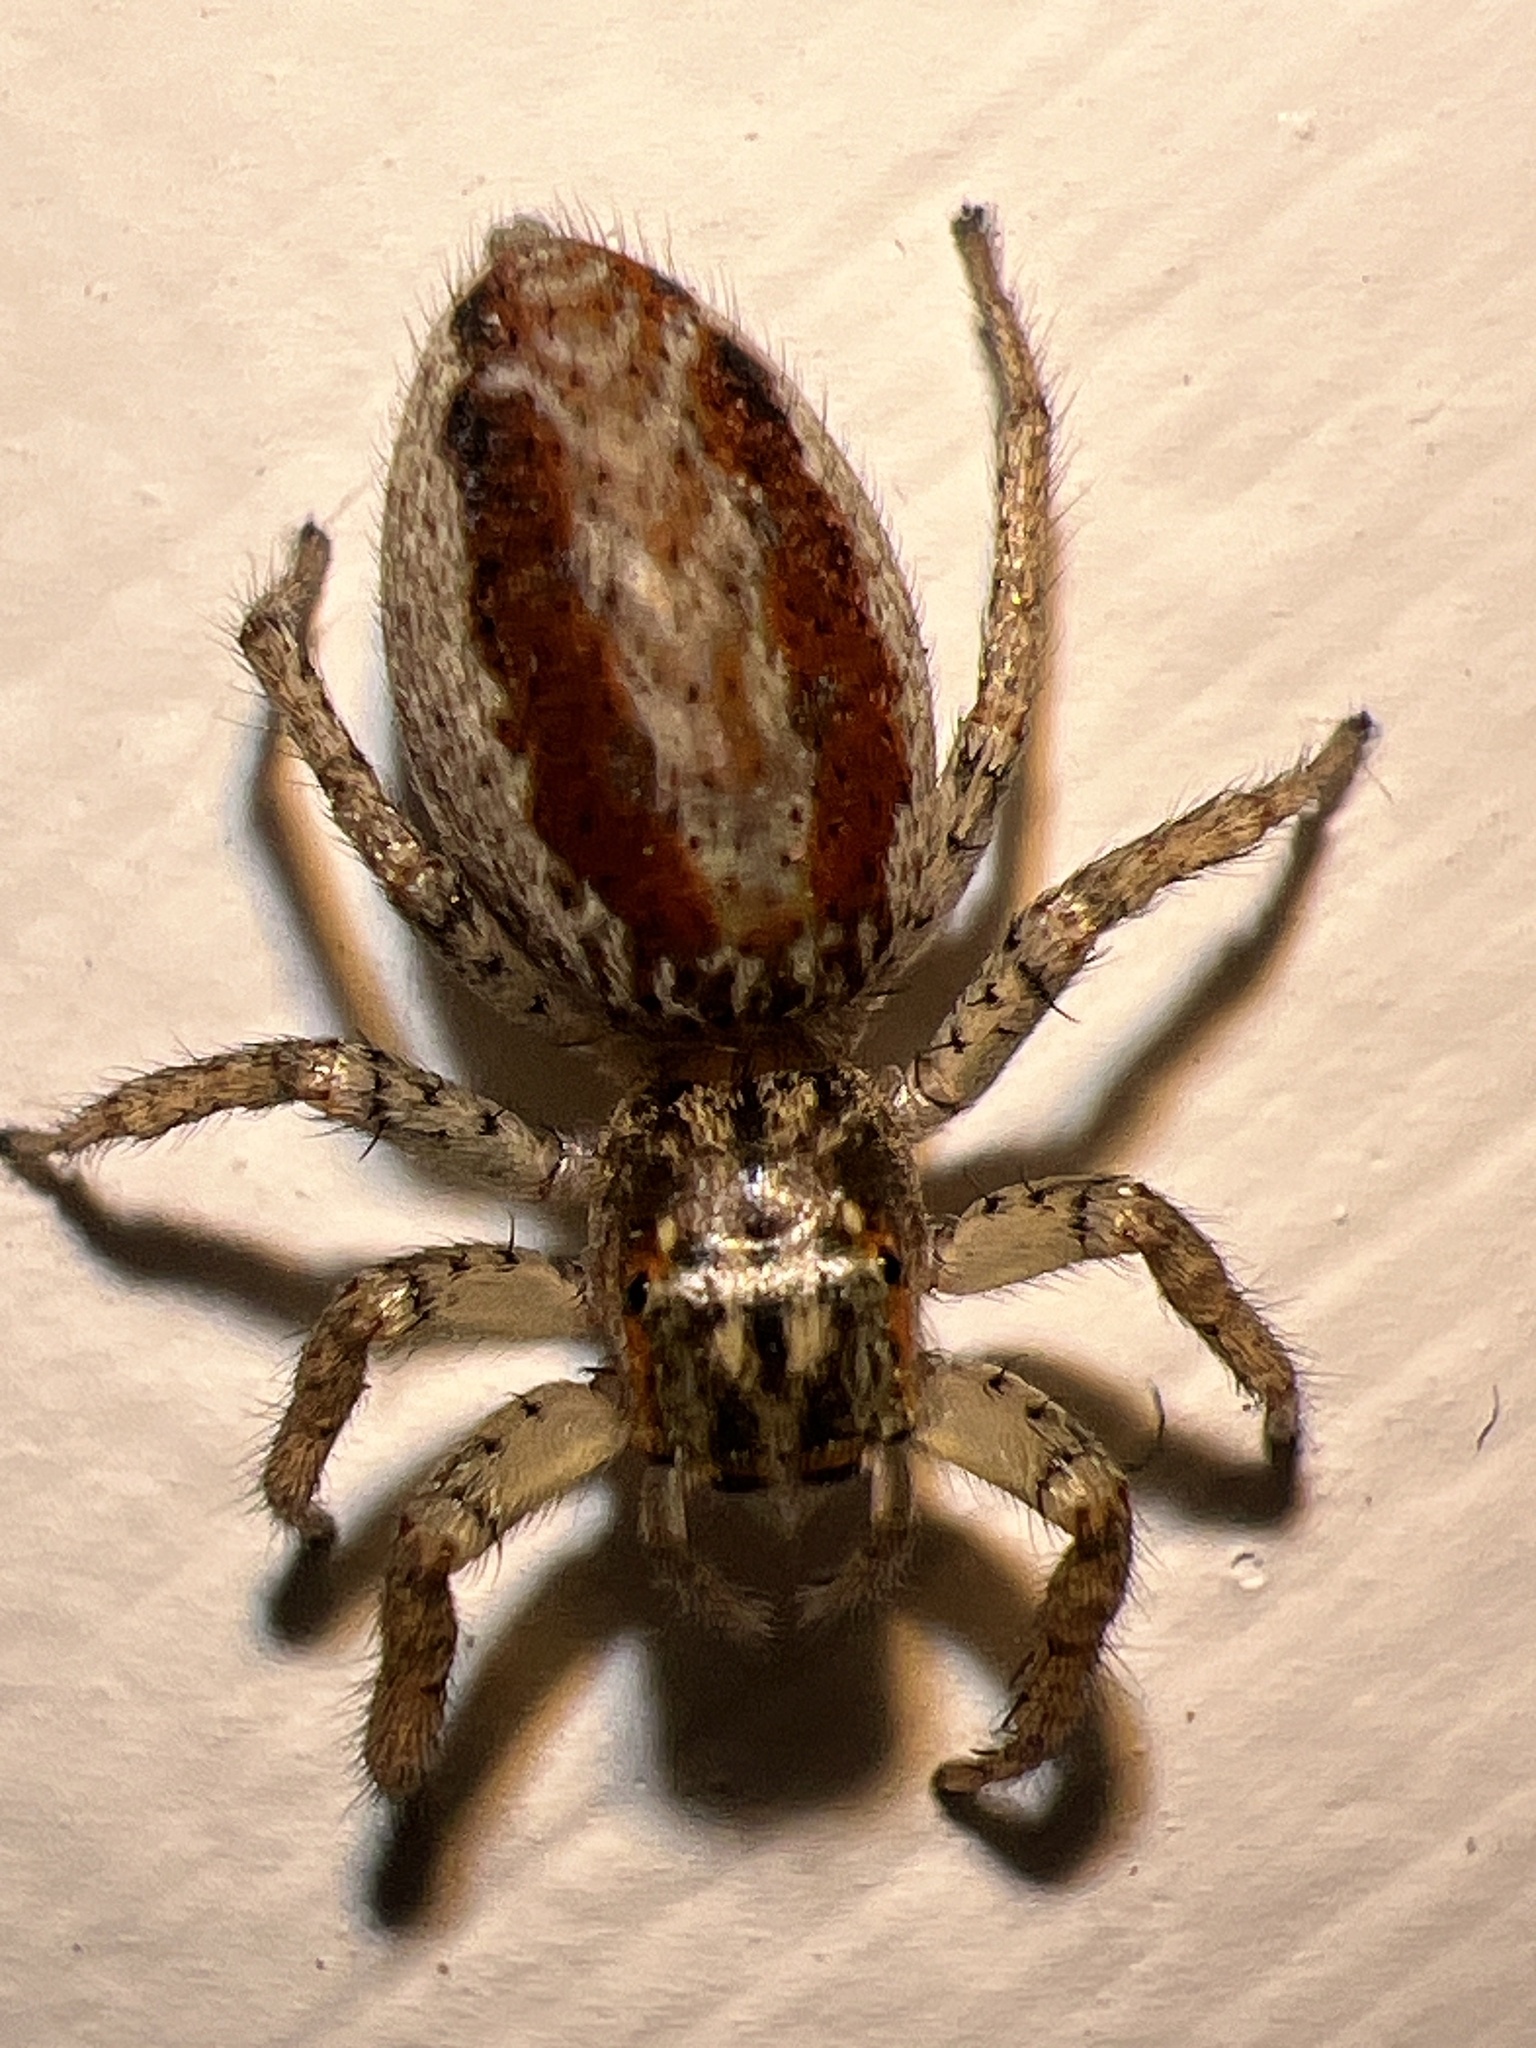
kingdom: Animalia
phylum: Arthropoda
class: Arachnida
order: Araneae
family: Salticidae
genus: Maevia
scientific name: Maevia inclemens
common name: Dimorphic jumper
